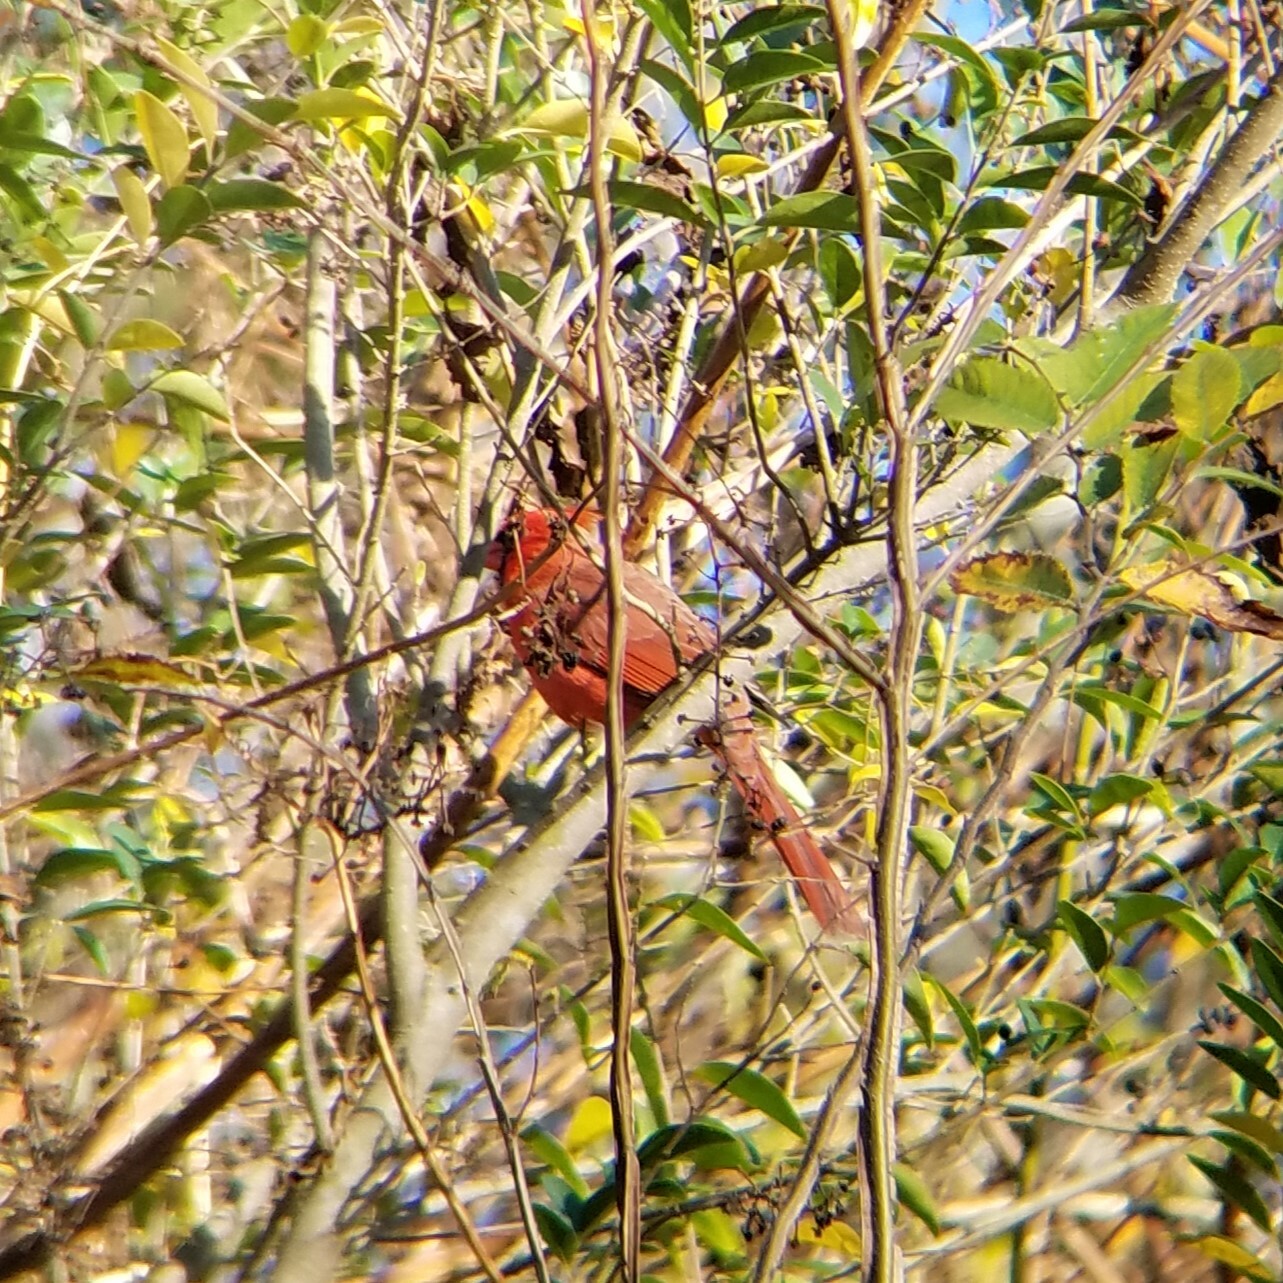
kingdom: Animalia
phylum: Chordata
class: Aves
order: Passeriformes
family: Cardinalidae
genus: Cardinalis
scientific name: Cardinalis cardinalis
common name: Northern cardinal
